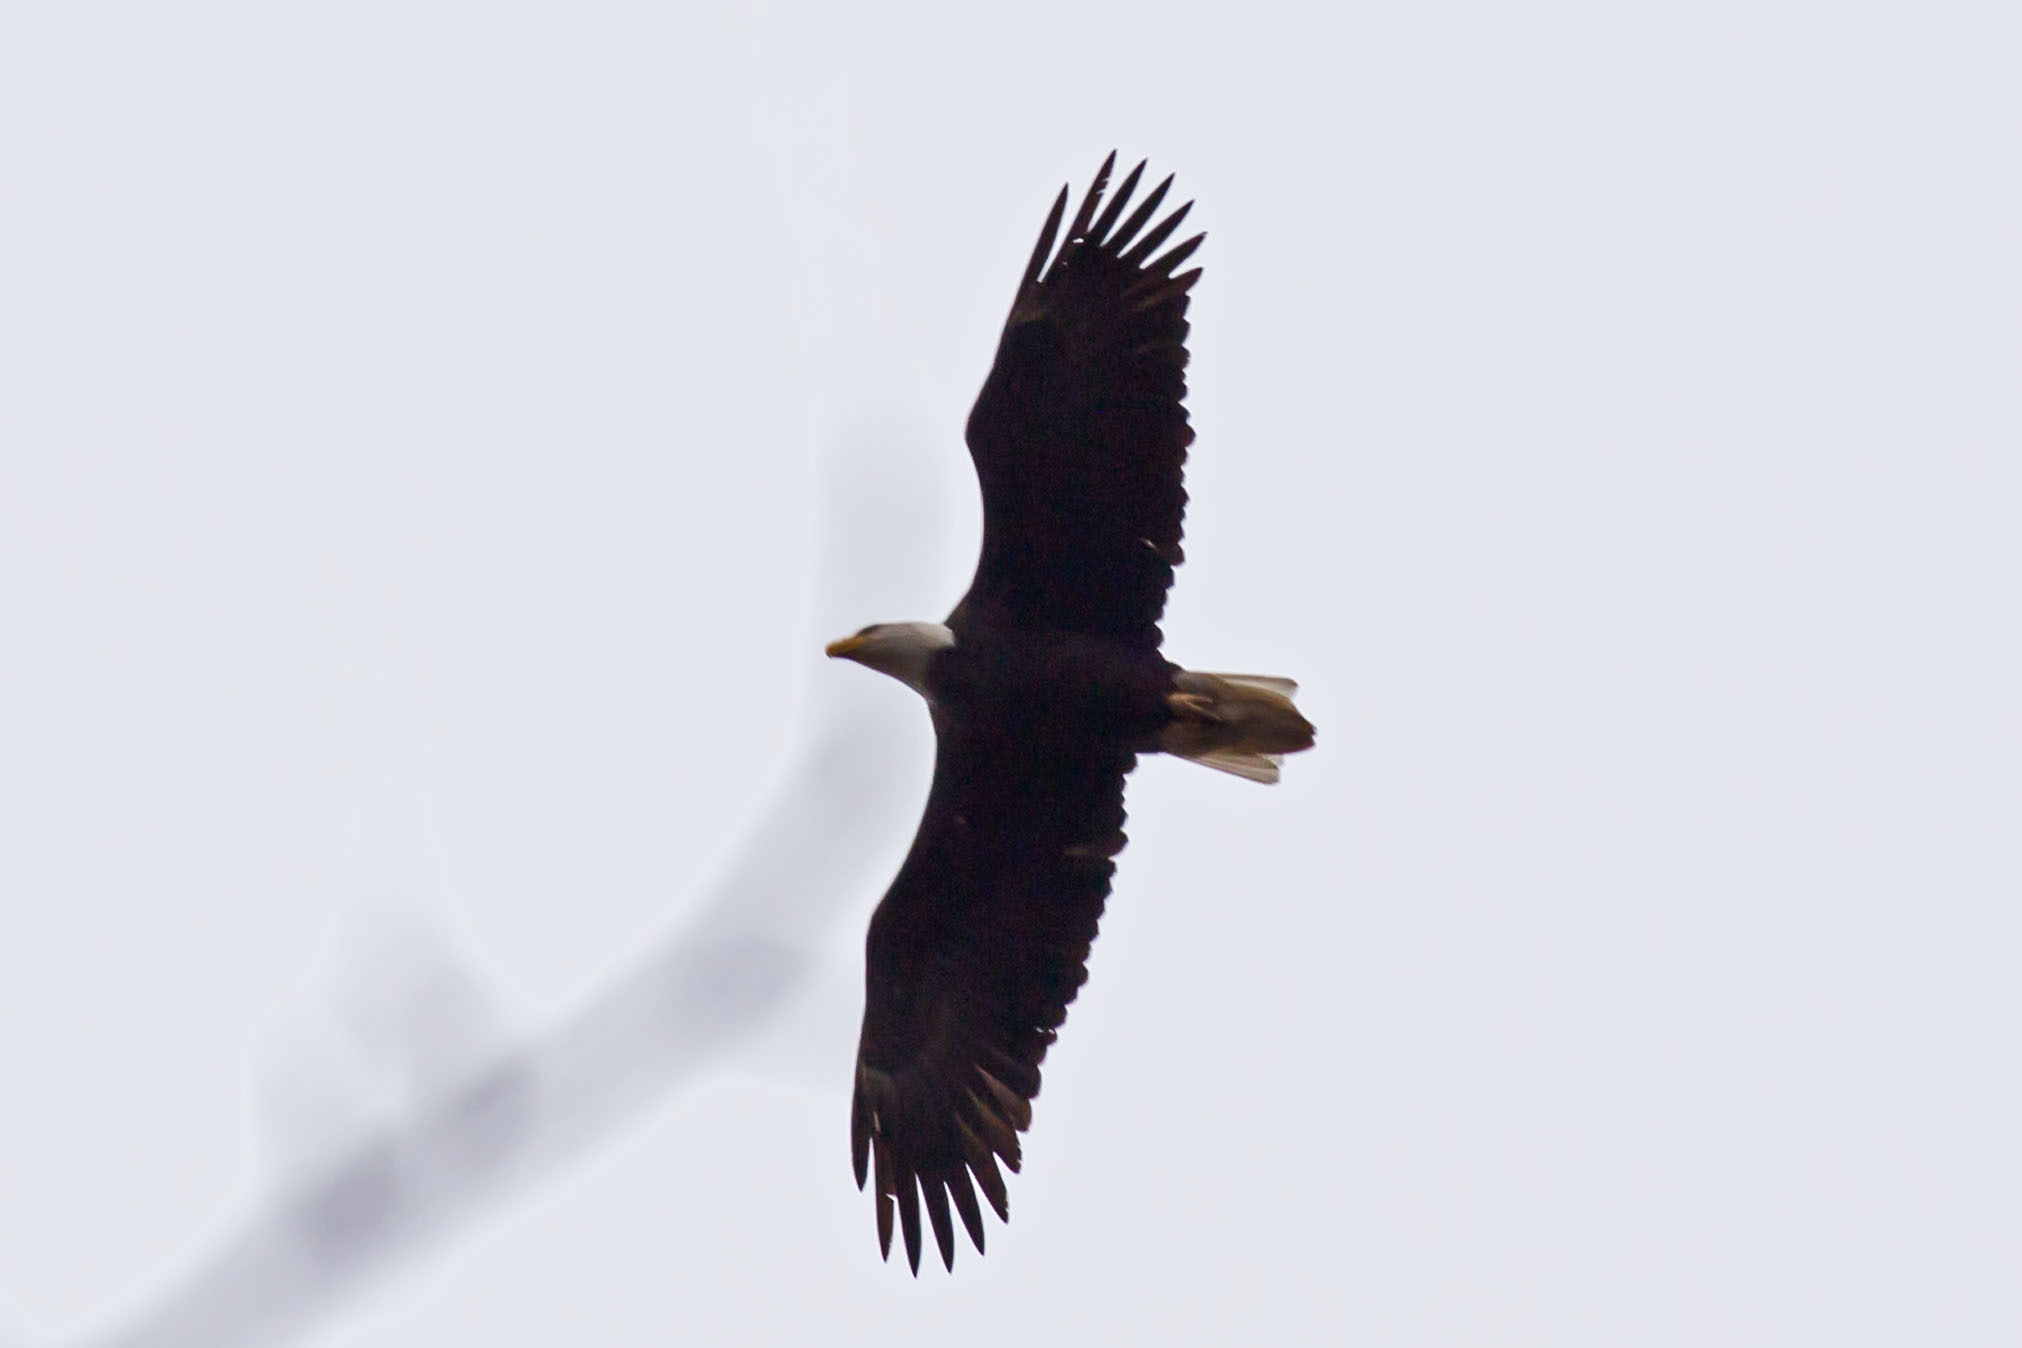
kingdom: Animalia
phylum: Chordata
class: Aves
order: Accipitriformes
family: Accipitridae
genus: Haliaeetus
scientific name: Haliaeetus leucocephalus
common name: Bald eagle
